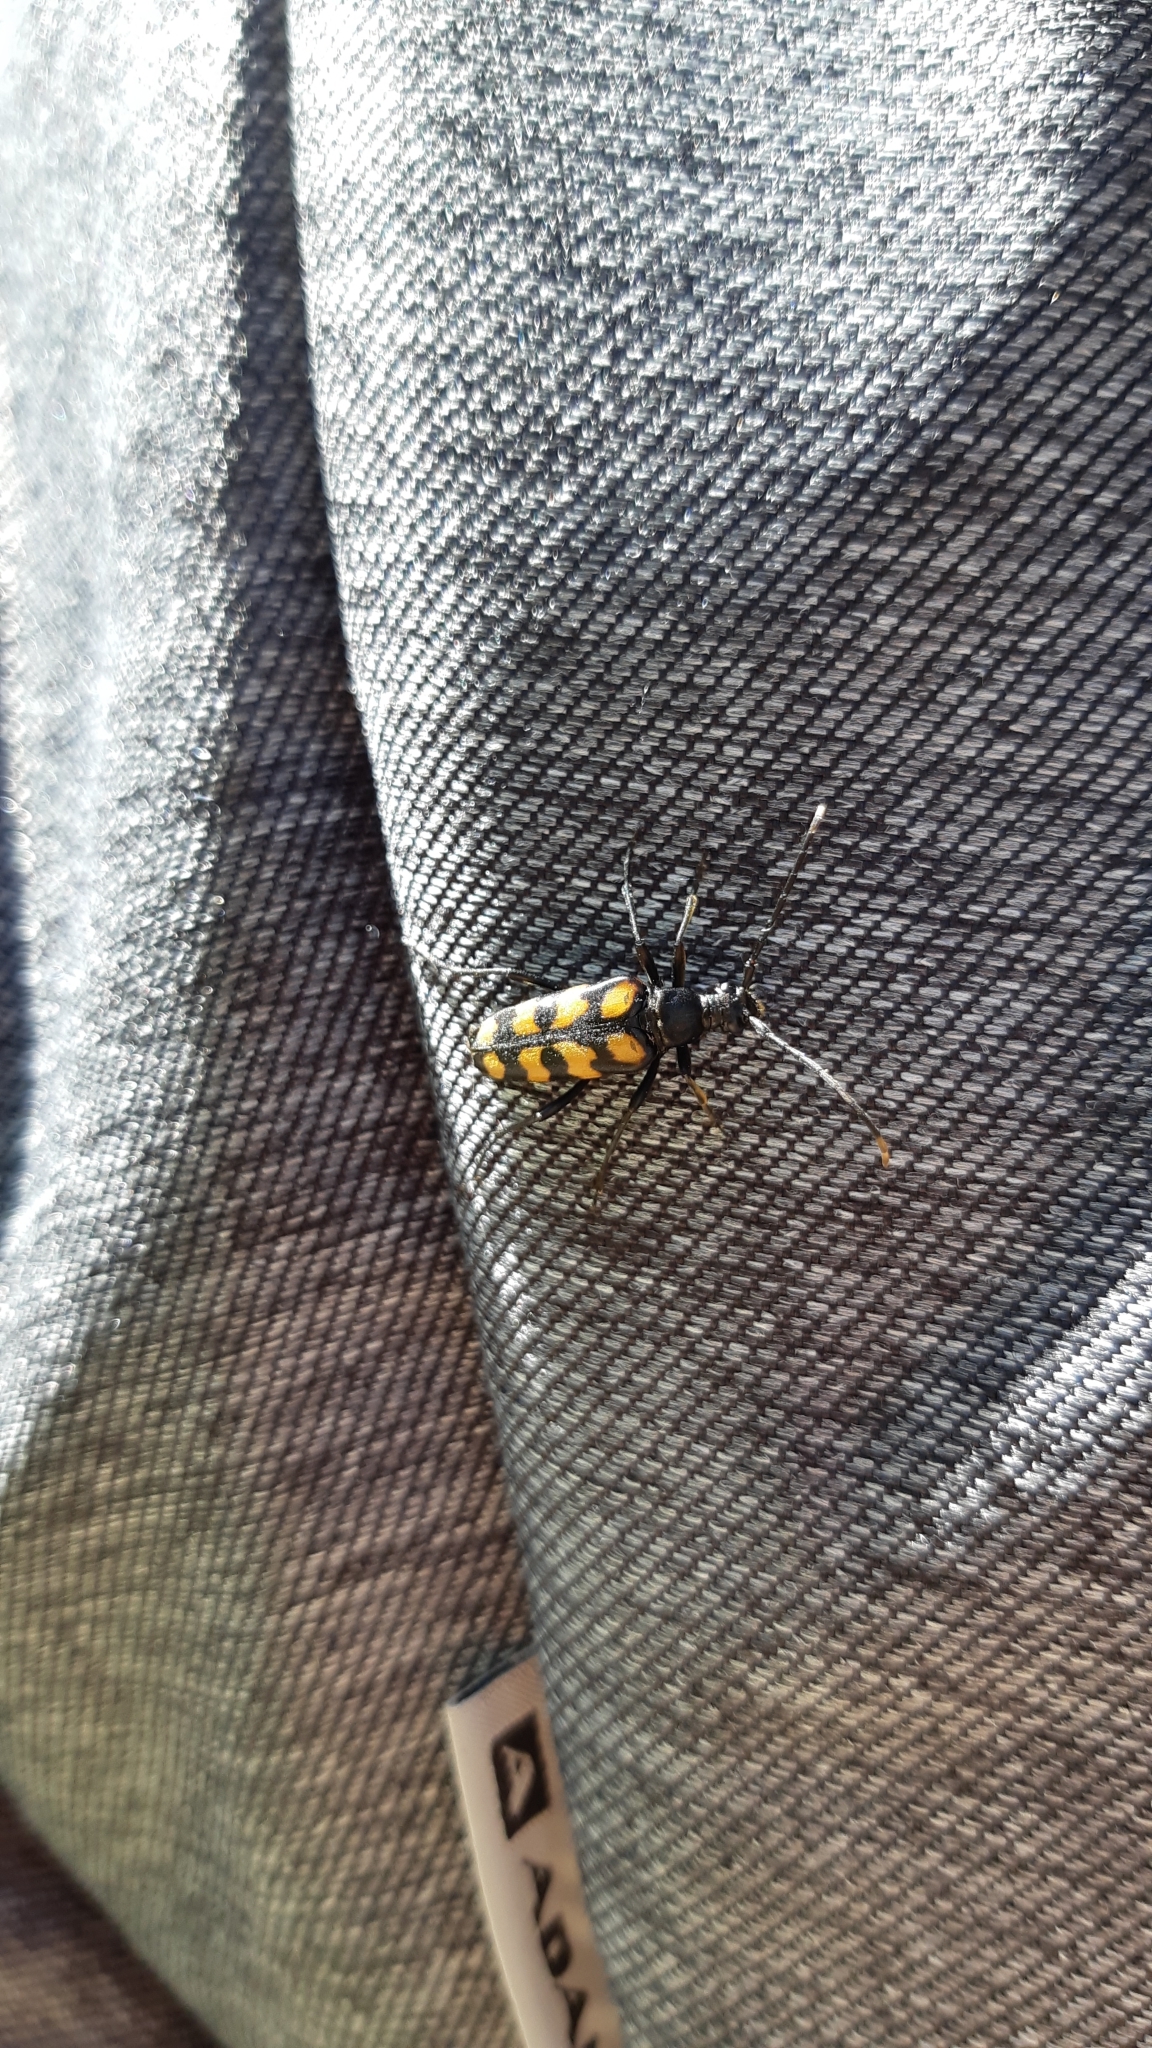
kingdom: Animalia
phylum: Arthropoda
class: Insecta
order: Coleoptera
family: Cerambycidae
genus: Leptura
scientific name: Leptura quadrifasciata
